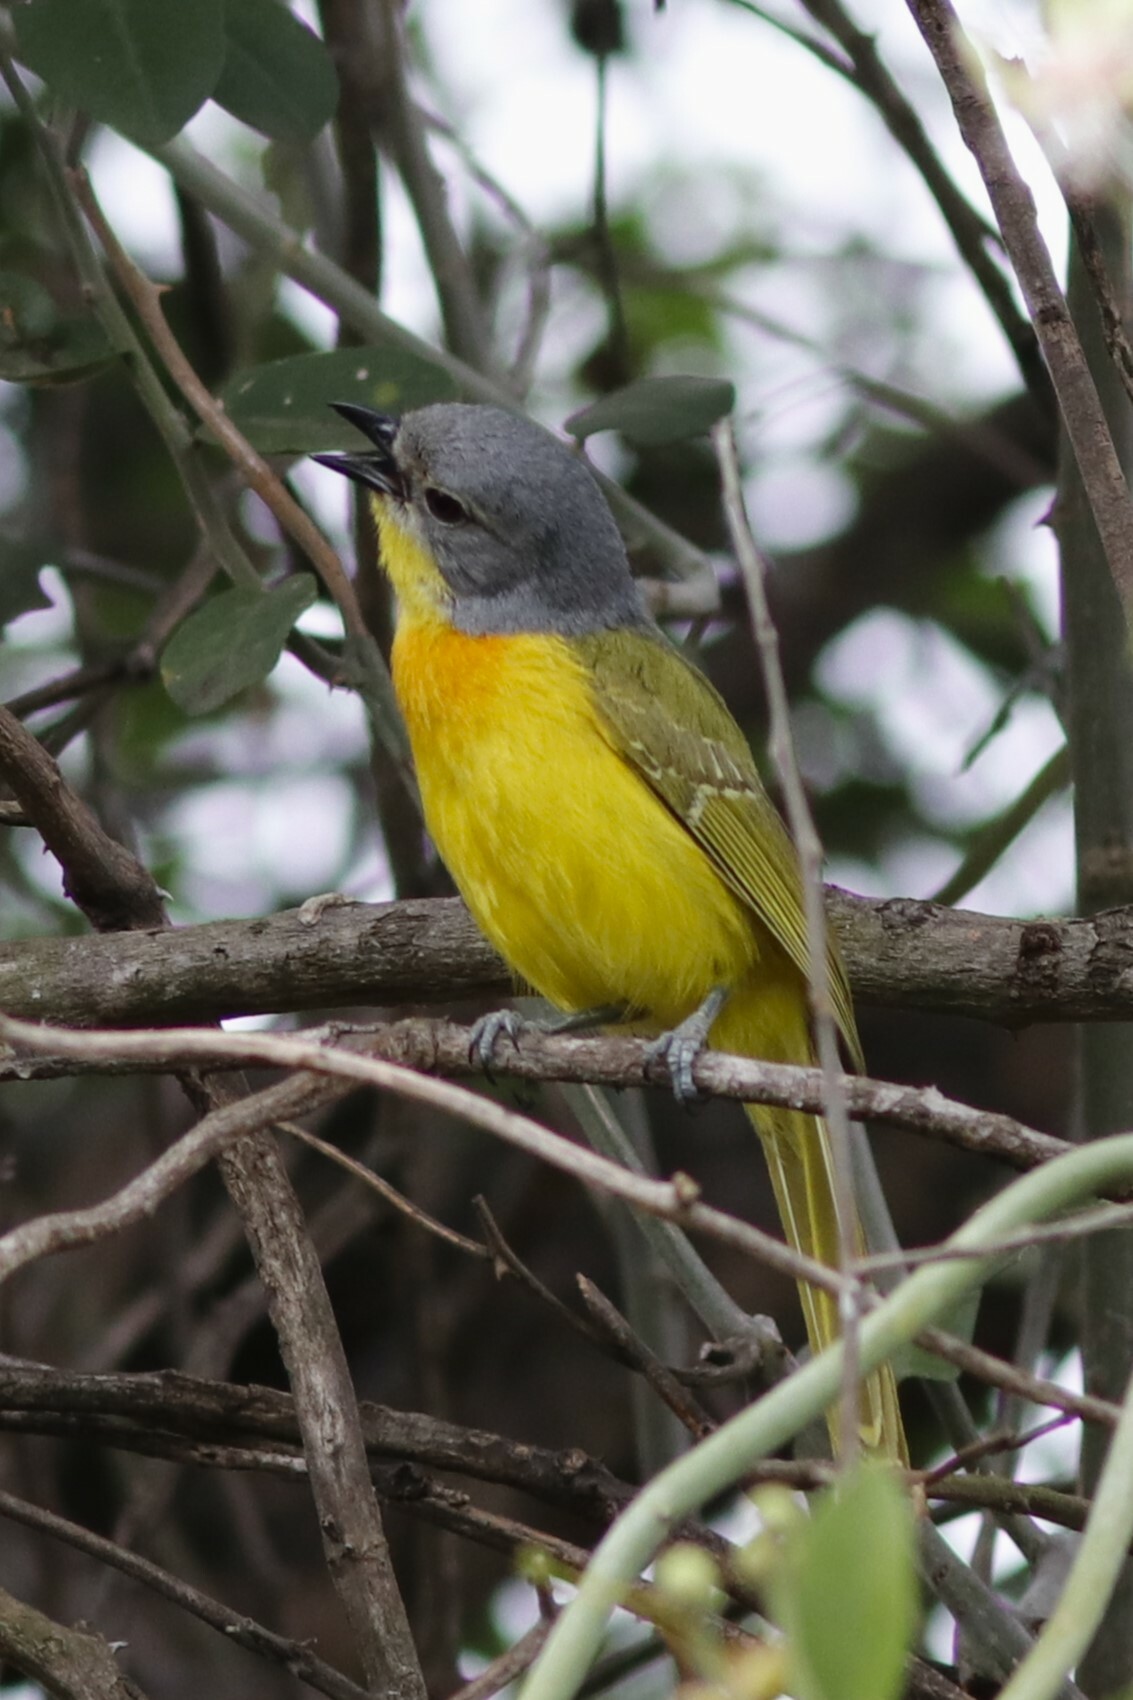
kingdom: Animalia
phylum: Chordata
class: Aves
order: Passeriformes
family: Malaconotidae
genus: Chlorophoneus
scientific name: Chlorophoneus sulfureopectus
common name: Orange-breasted bushshrike
